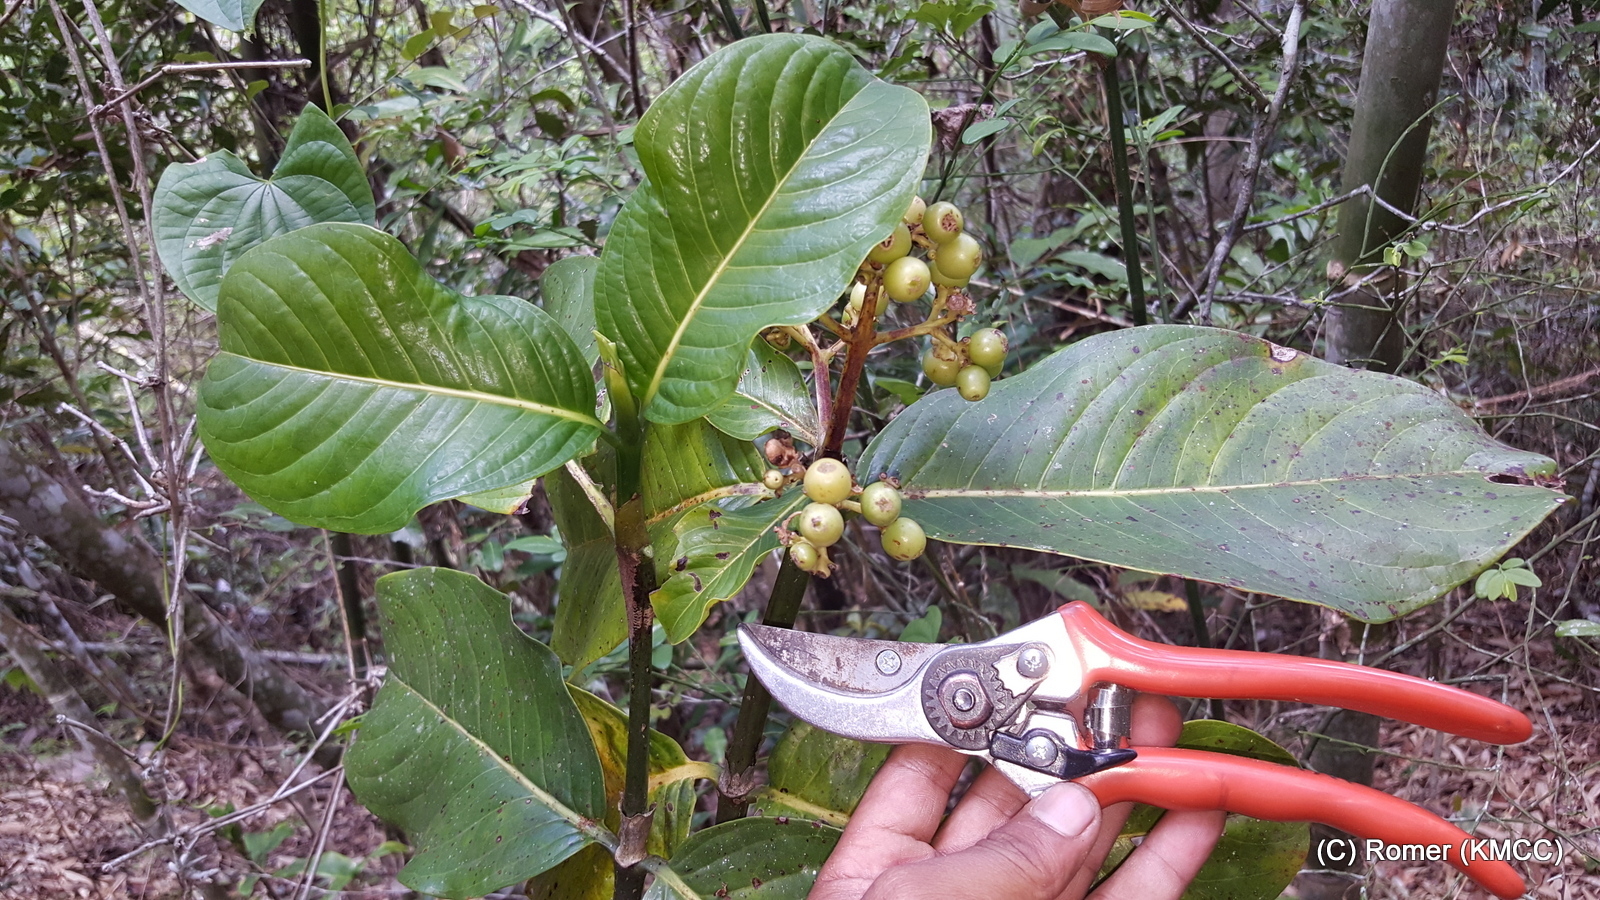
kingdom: Plantae
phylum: Tracheophyta
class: Magnoliopsida
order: Gentianales
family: Rubiaceae
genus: Gaertnera
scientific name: Gaertnera macrobotrys
